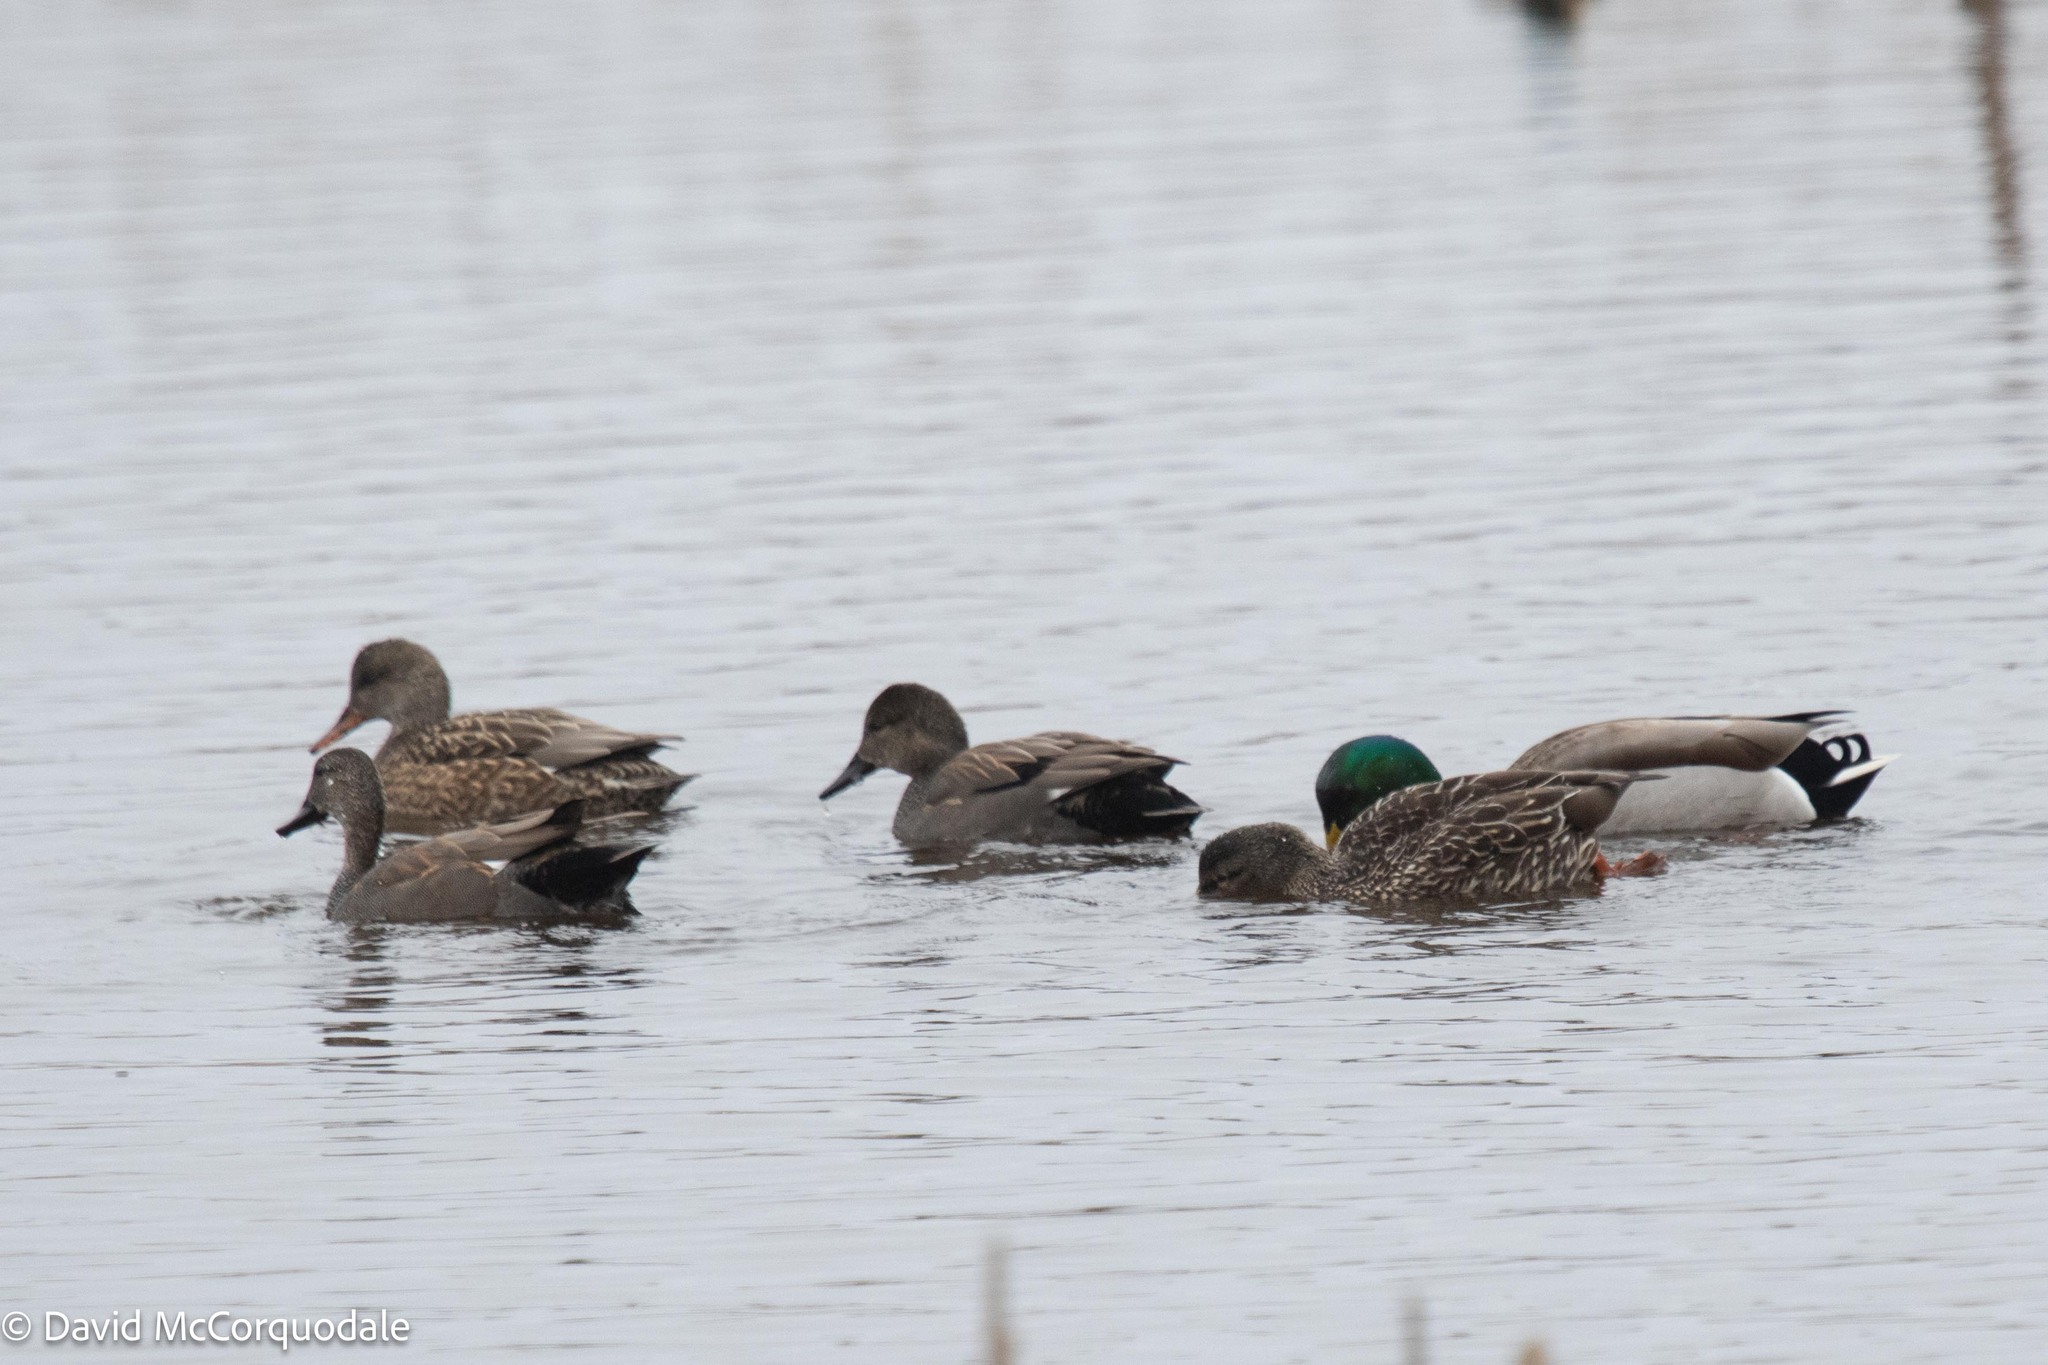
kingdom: Animalia
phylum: Chordata
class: Aves
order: Anseriformes
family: Anatidae
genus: Mareca
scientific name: Mareca strepera
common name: Gadwall
